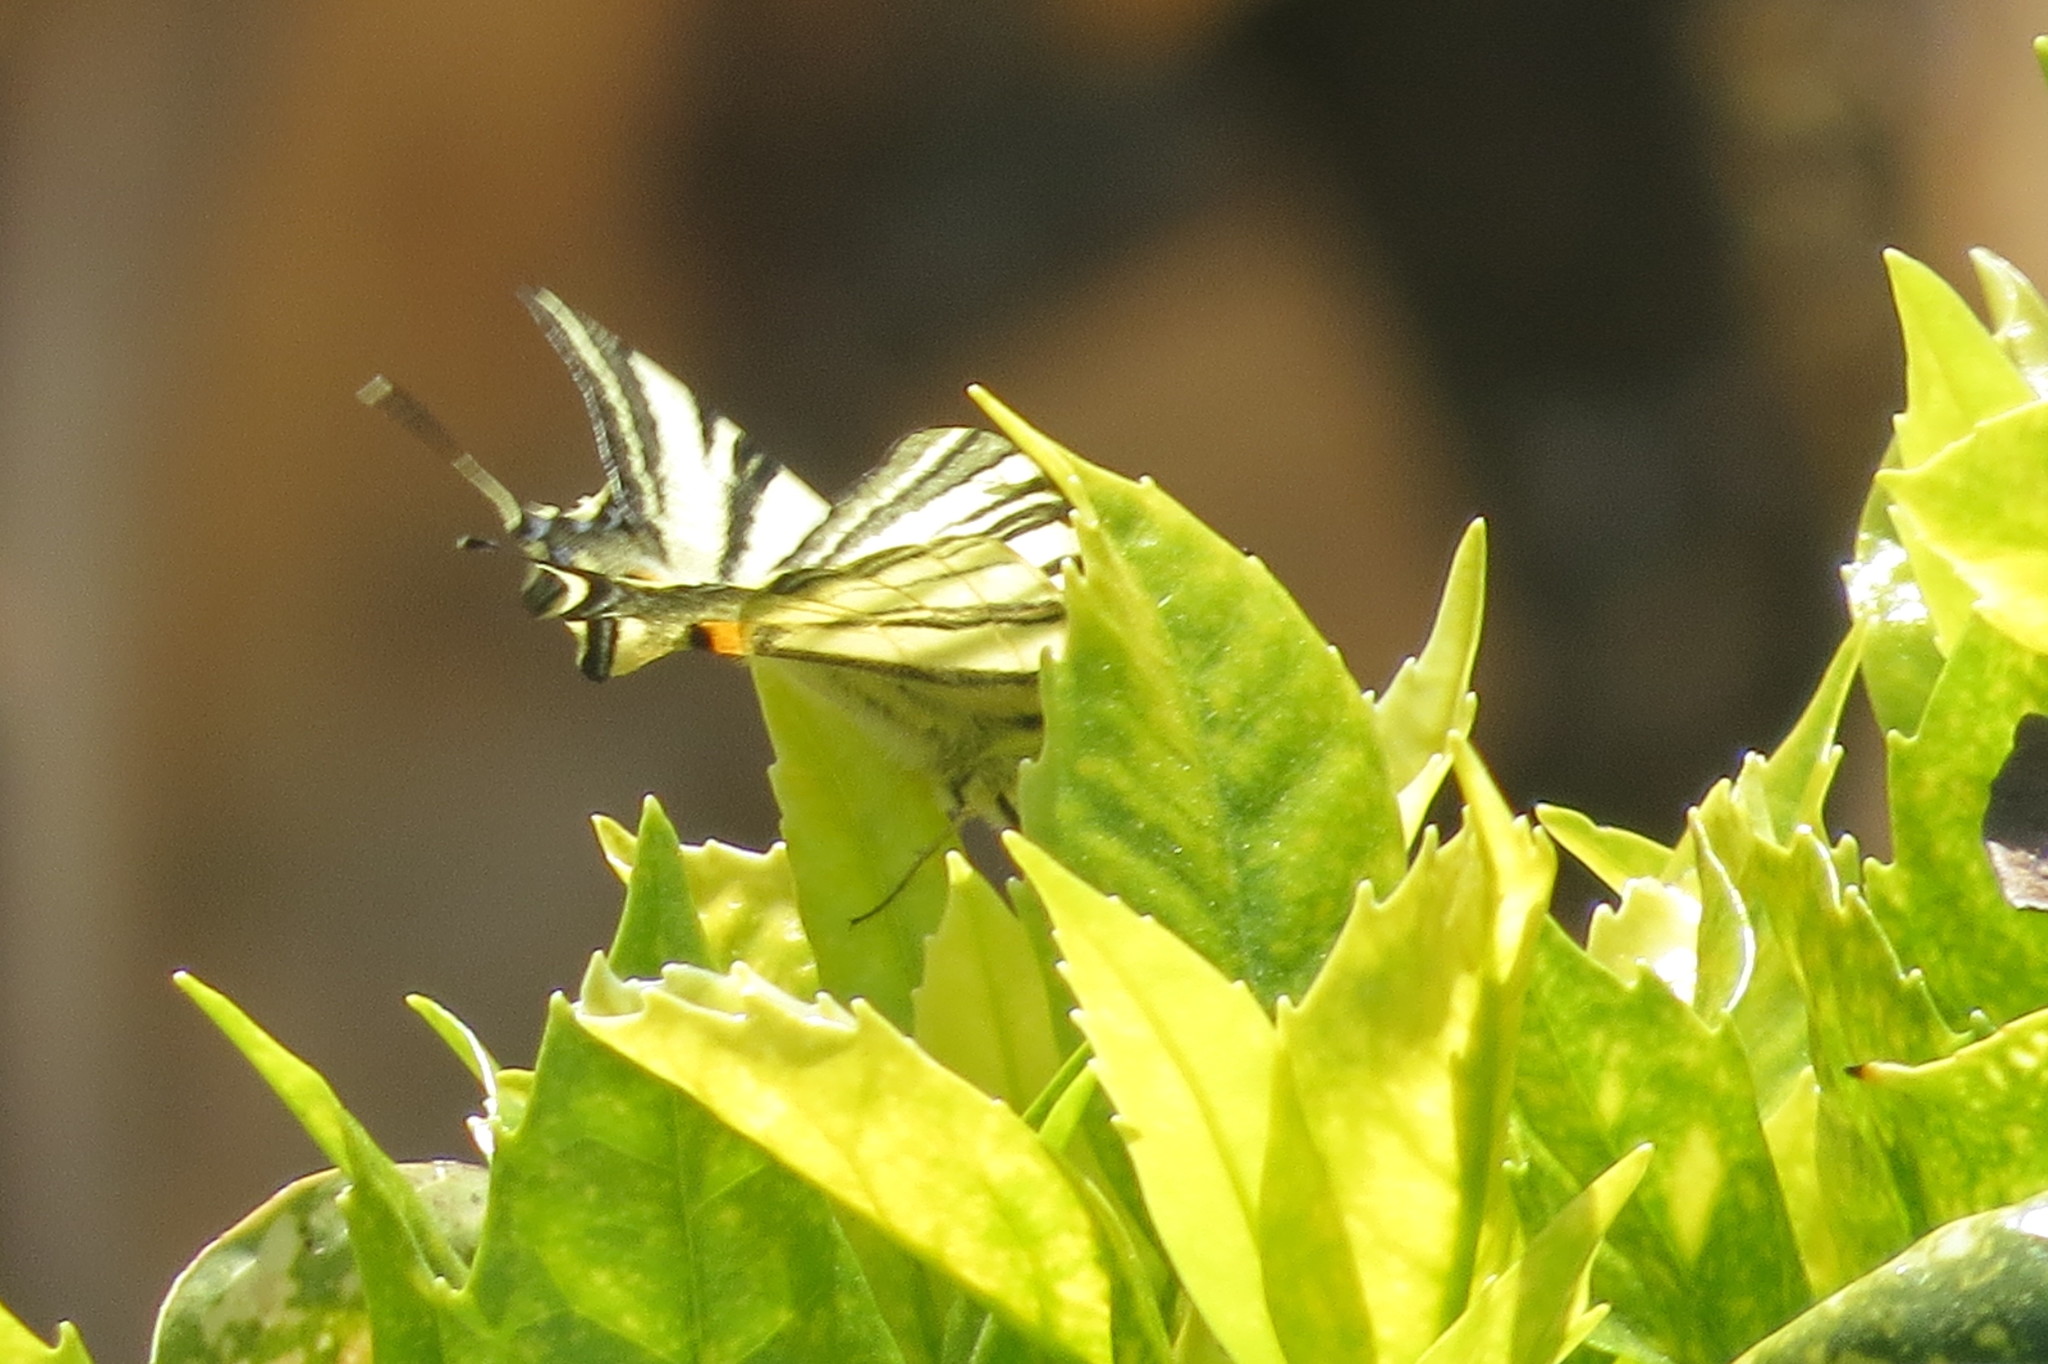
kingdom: Animalia
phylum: Arthropoda
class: Insecta
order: Lepidoptera
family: Papilionidae
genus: Iphiclides
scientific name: Iphiclides podalirius
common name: Scarce swallowtail
